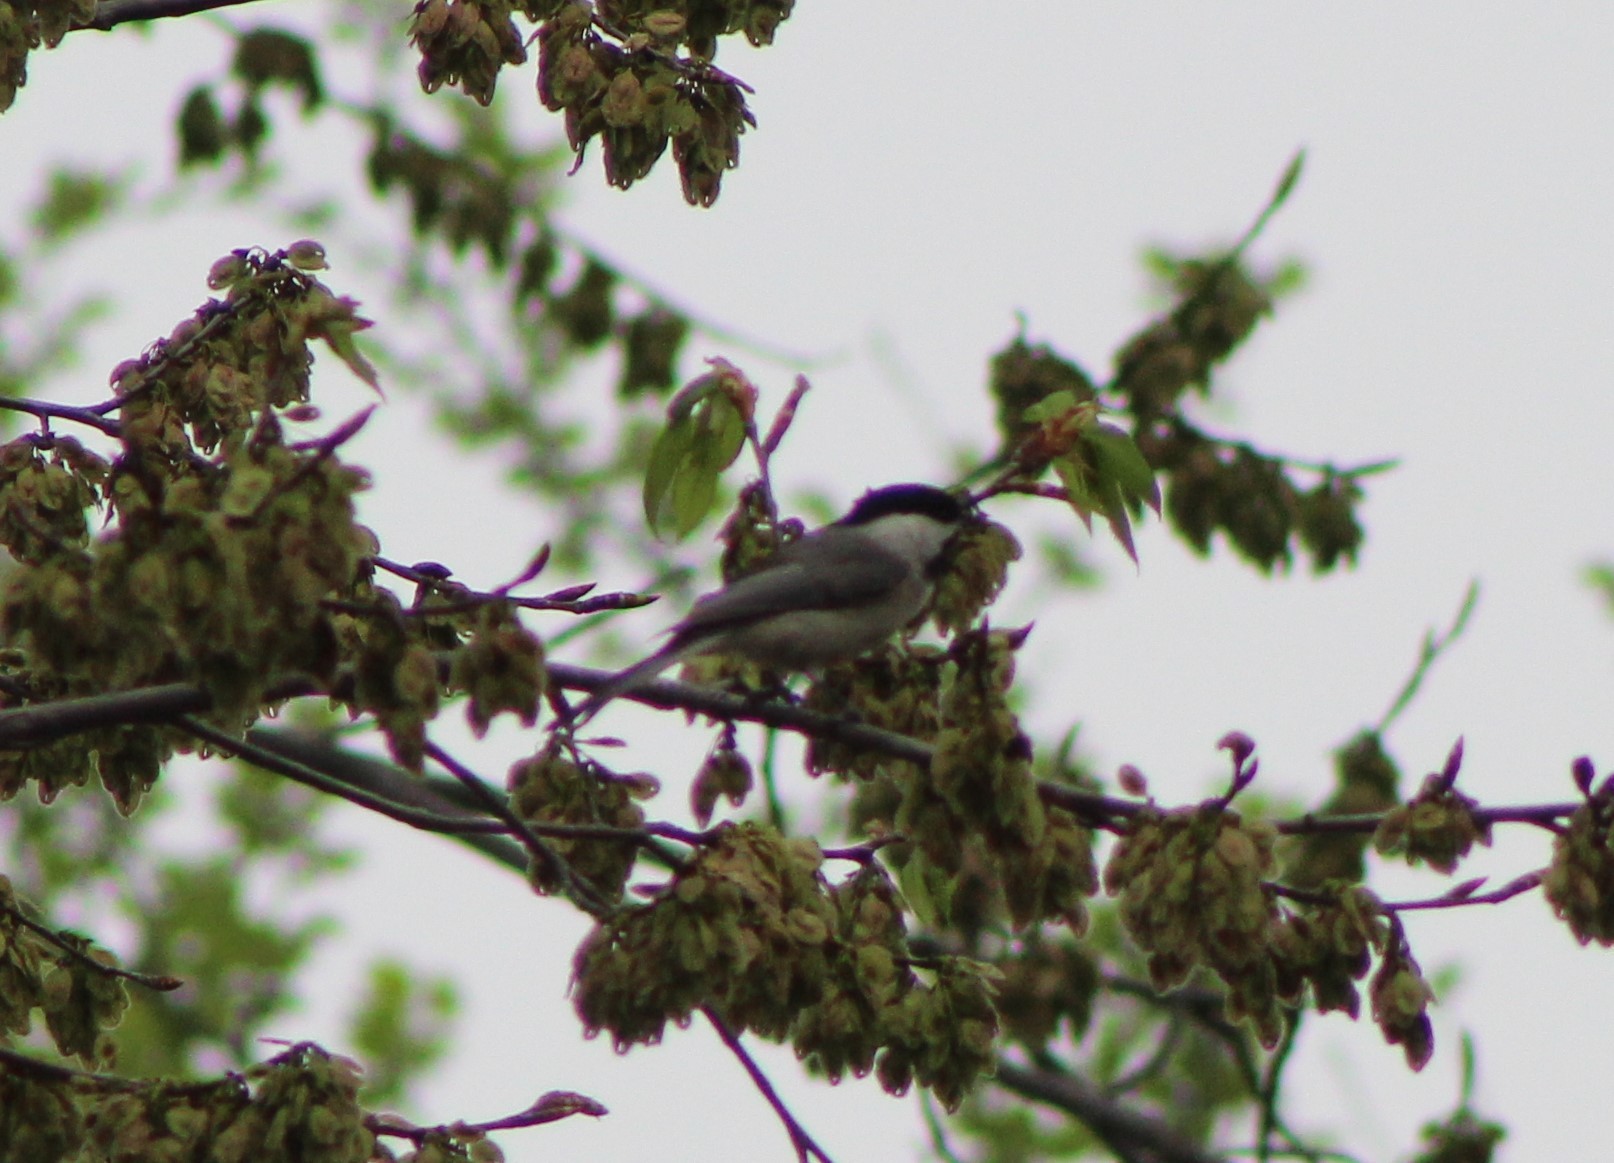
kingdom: Animalia
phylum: Chordata
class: Aves
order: Passeriformes
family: Paridae
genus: Poecile
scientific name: Poecile carolinensis
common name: Carolina chickadee
